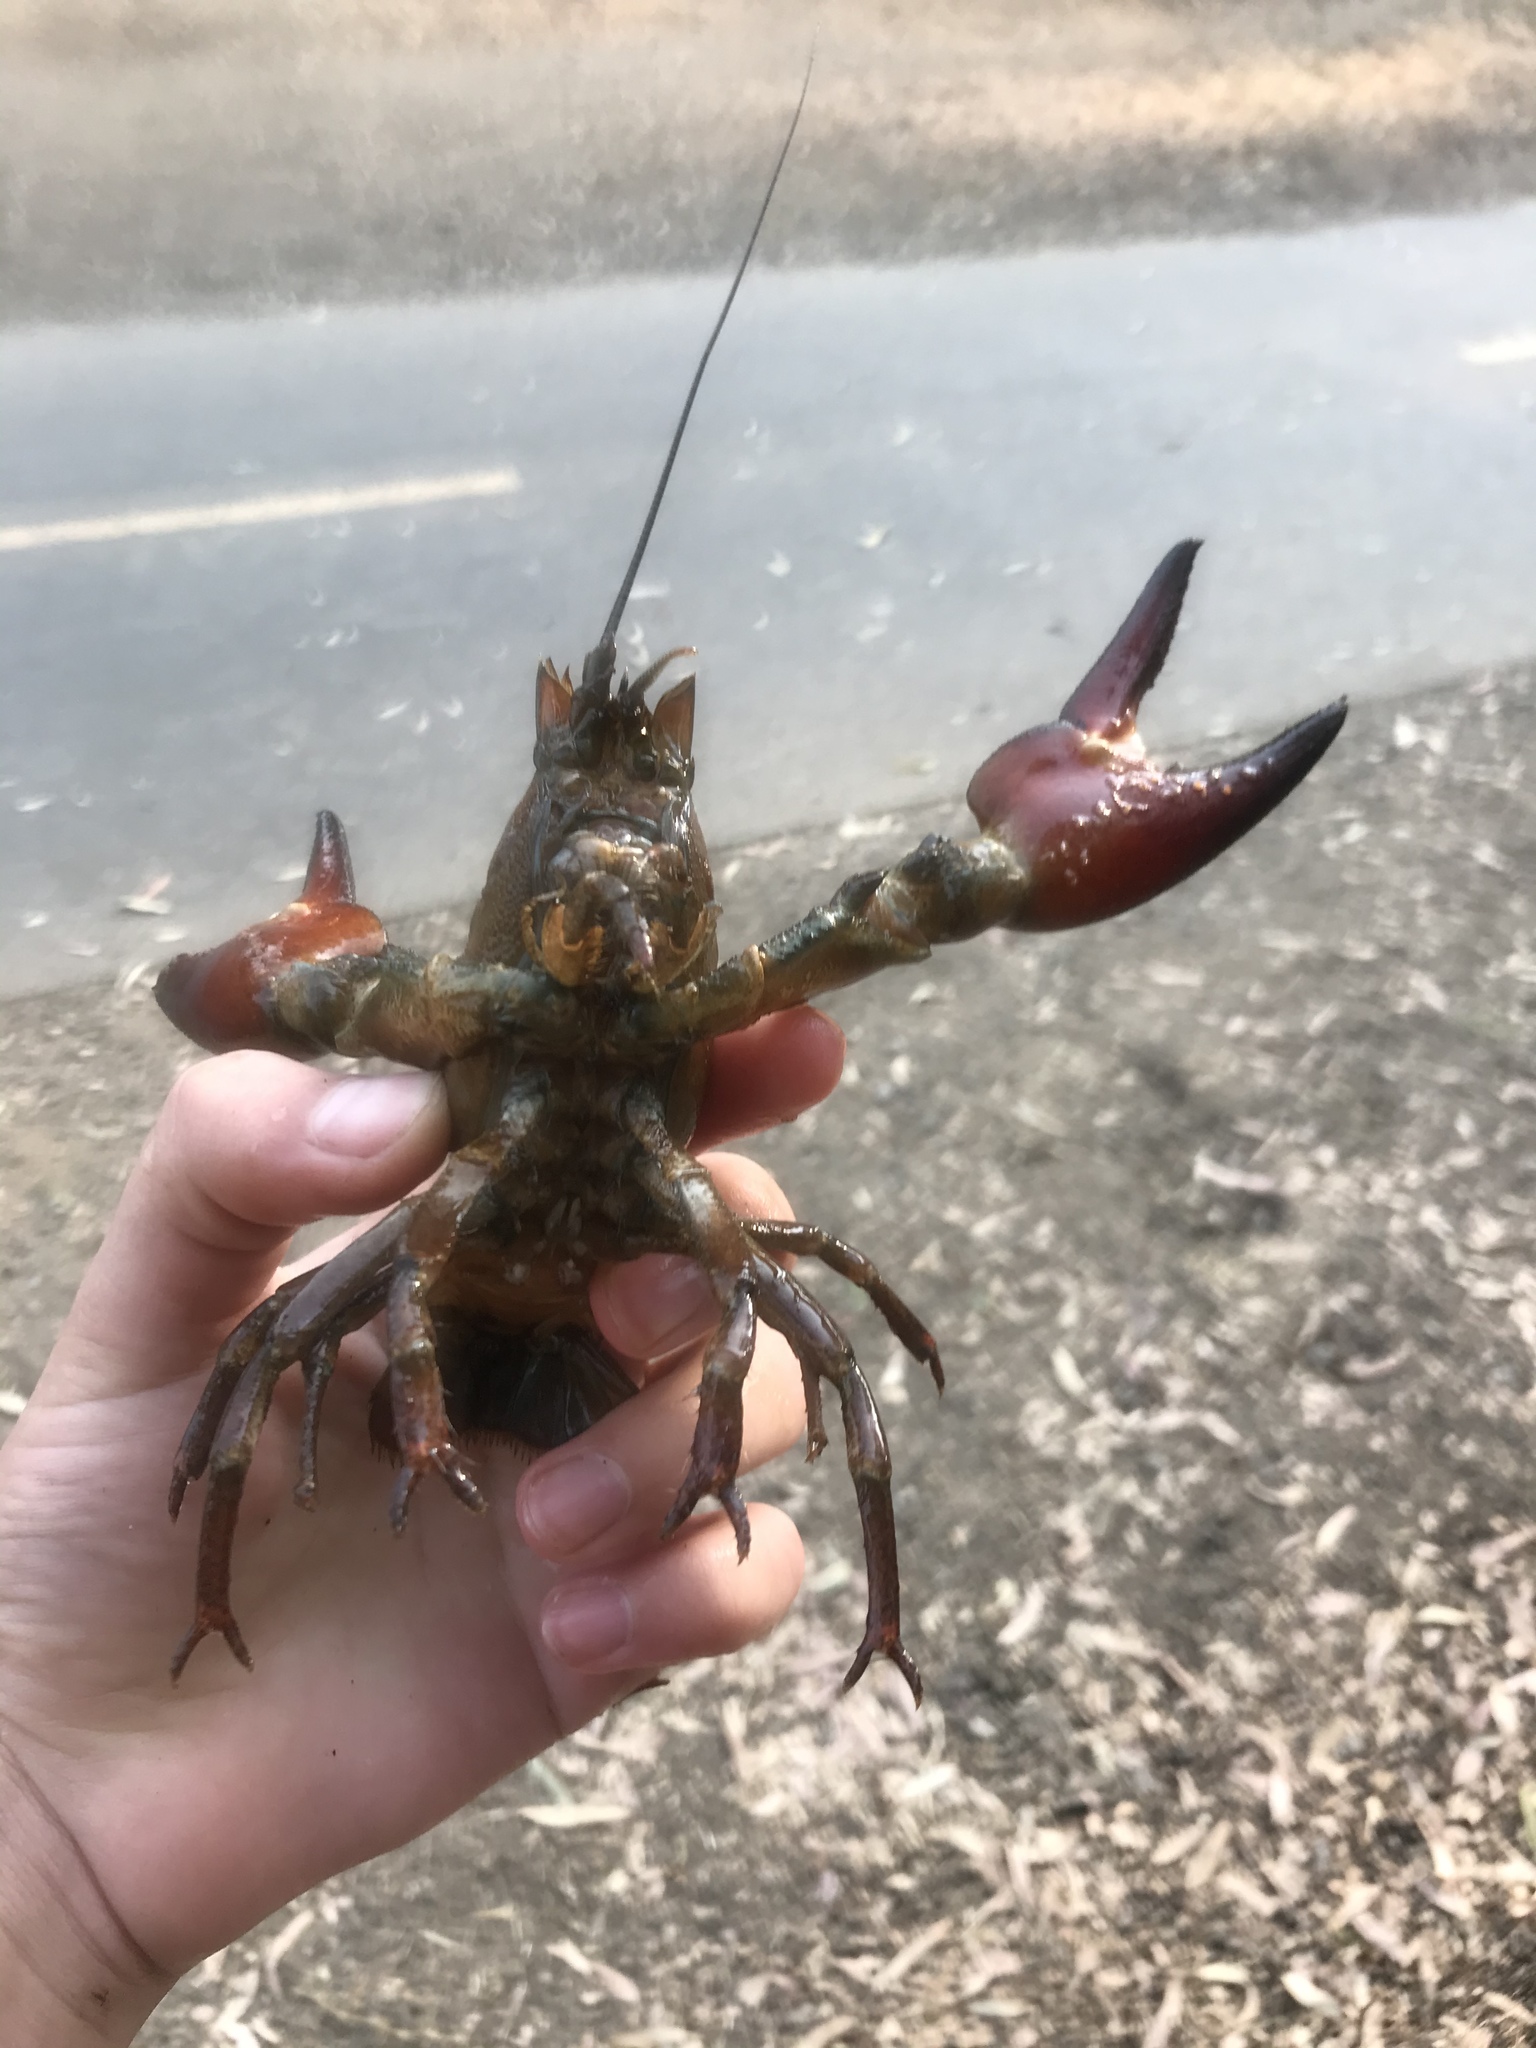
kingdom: Animalia
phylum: Arthropoda
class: Malacostraca
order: Decapoda
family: Astacidae
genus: Pacifastacus
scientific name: Pacifastacus leniusculus
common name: Signal crayfish
